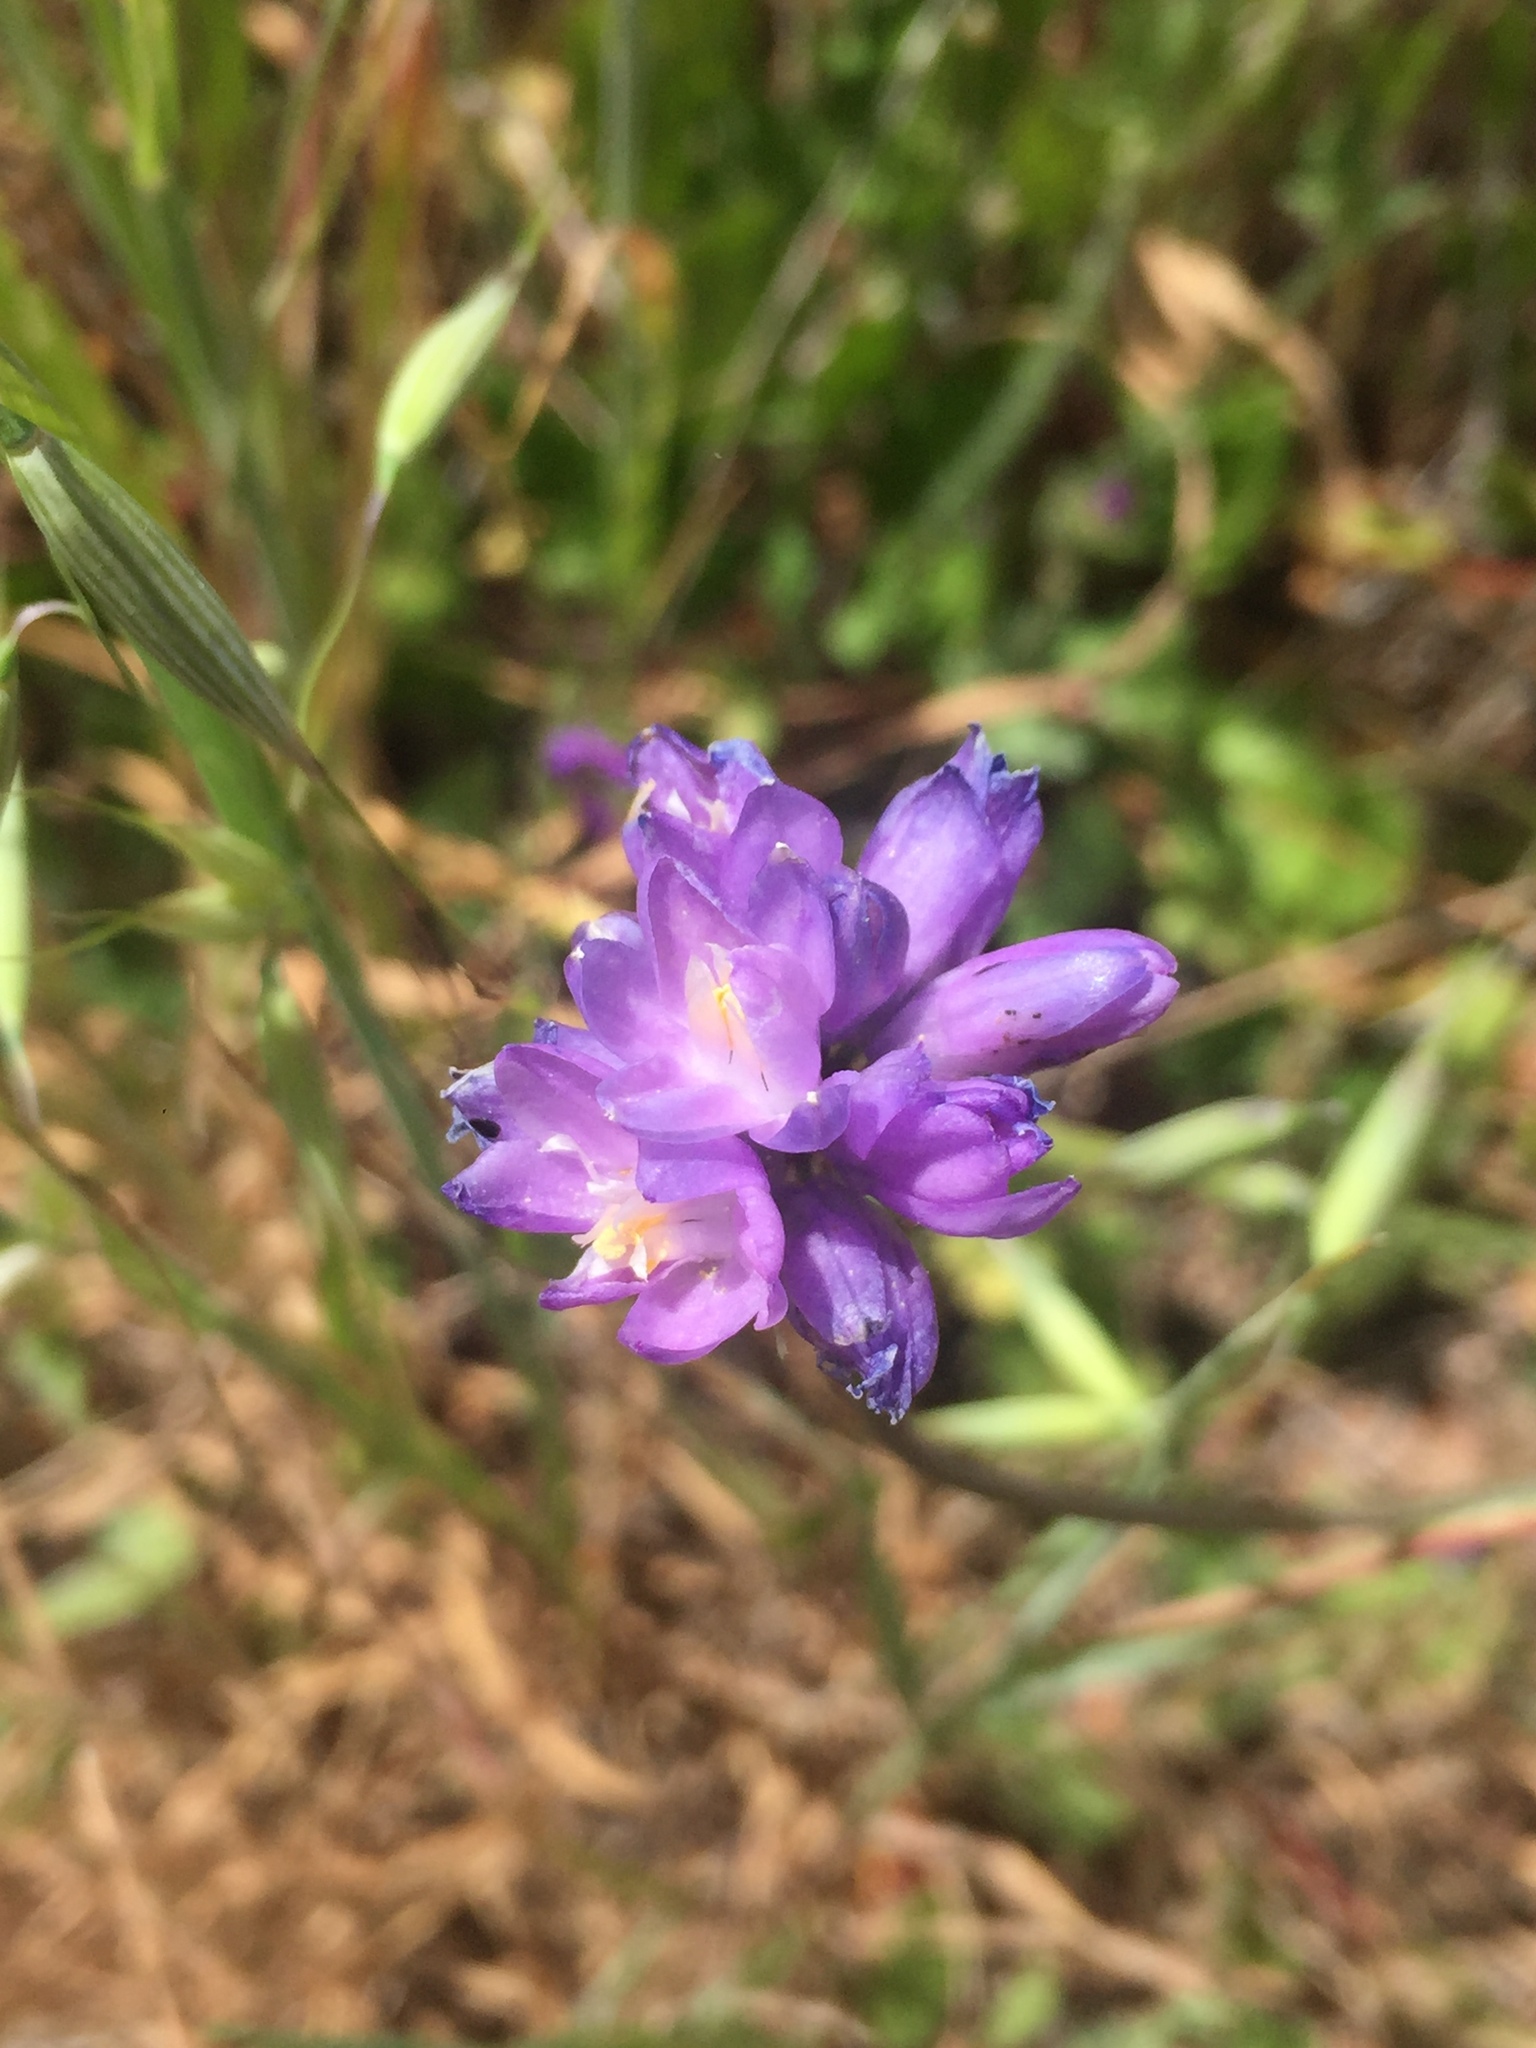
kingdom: Plantae
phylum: Tracheophyta
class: Liliopsida
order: Asparagales
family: Asparagaceae
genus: Dipterostemon
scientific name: Dipterostemon capitatus
